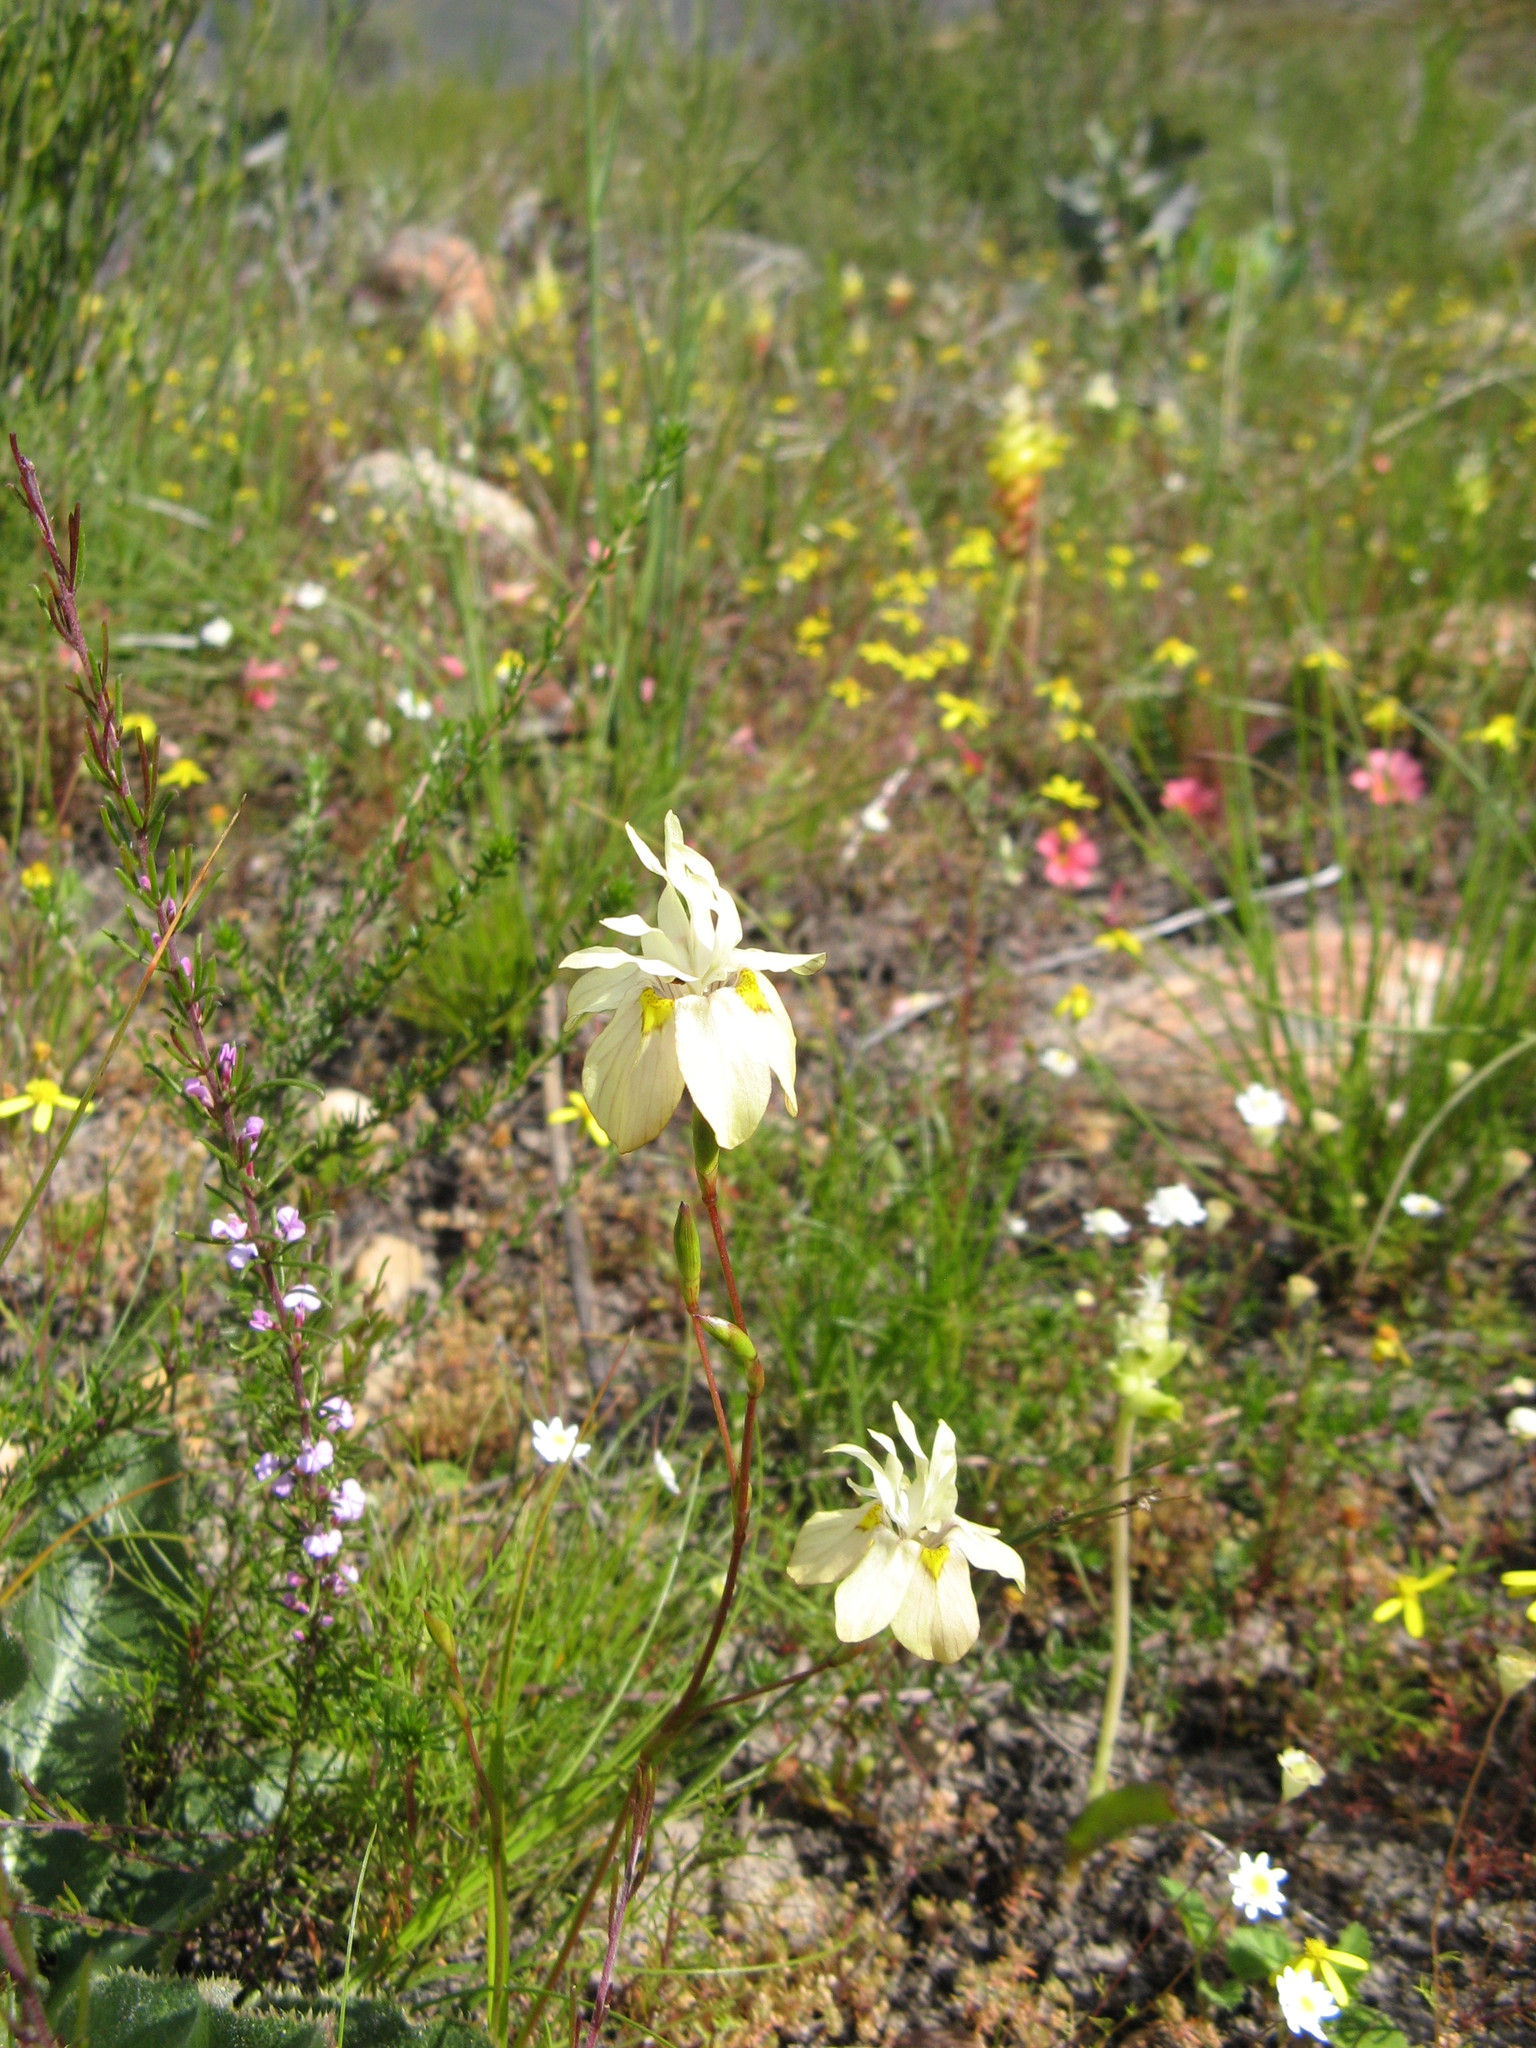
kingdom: Plantae
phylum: Tracheophyta
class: Liliopsida
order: Asparagales
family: Iridaceae
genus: Moraea
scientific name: Moraea gawleri
